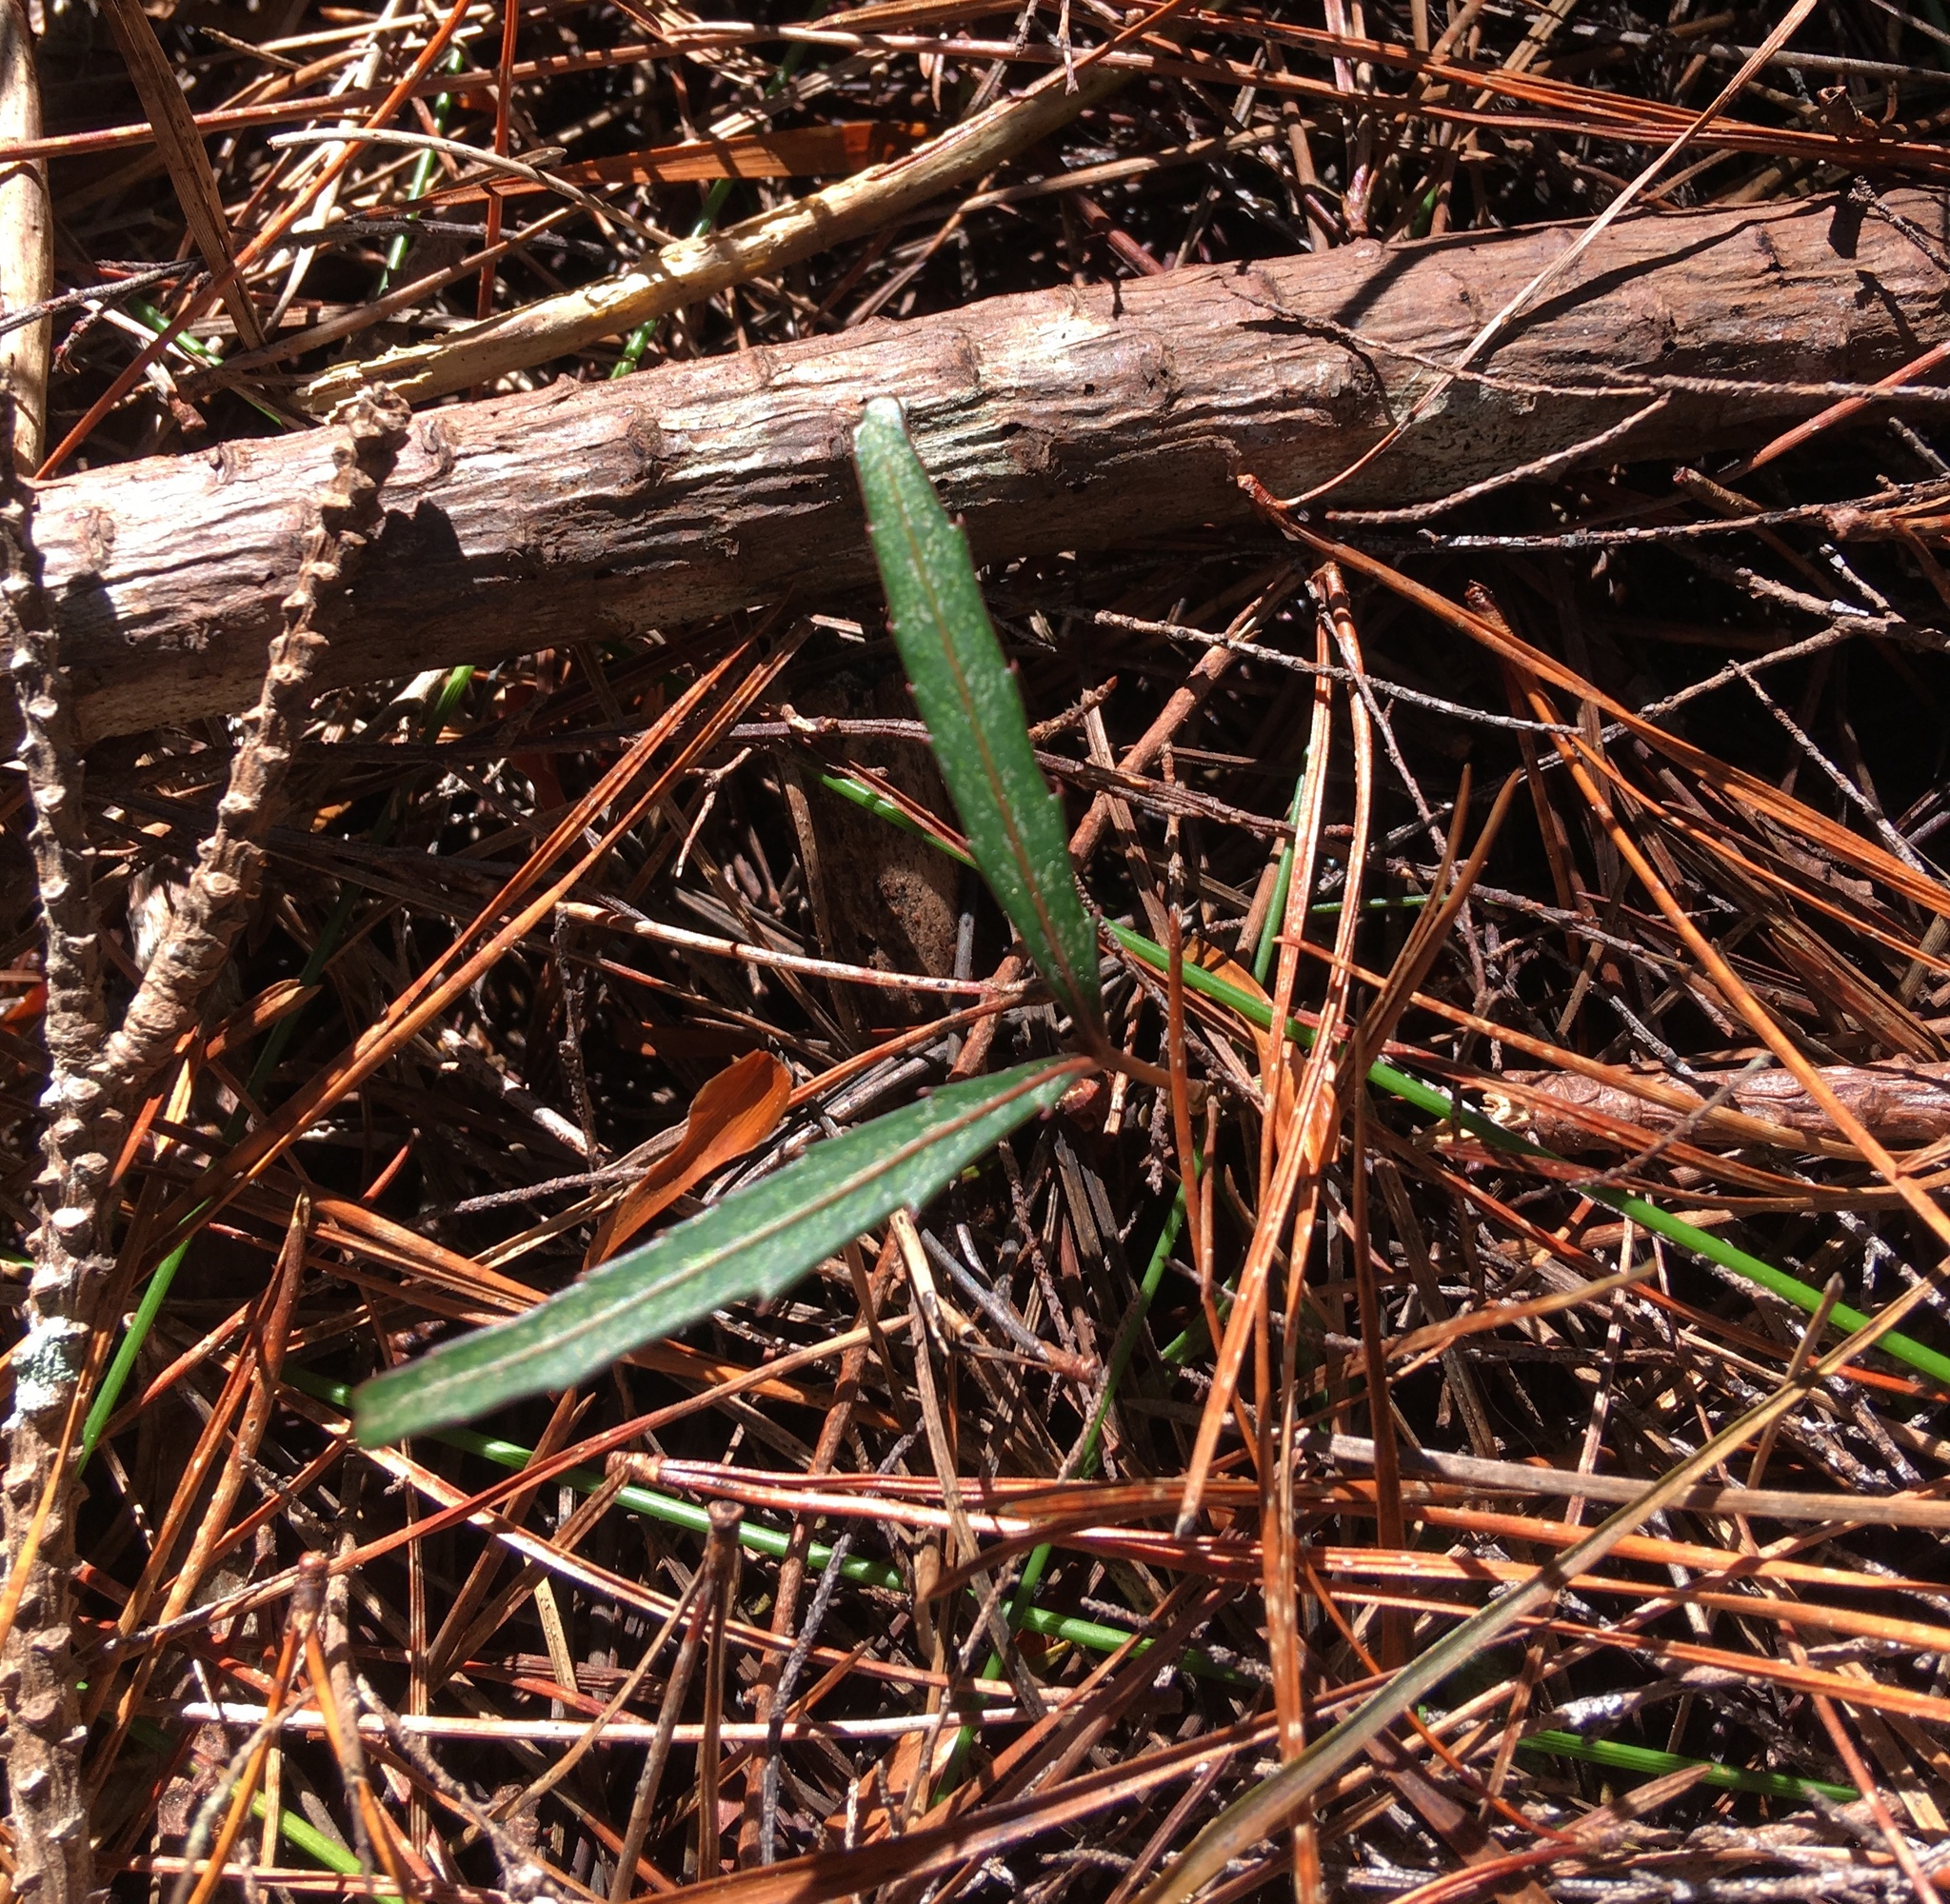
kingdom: Plantae
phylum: Tracheophyta
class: Magnoliopsida
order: Apiales
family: Araliaceae
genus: Pseudopanax
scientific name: Pseudopanax crassifolius
